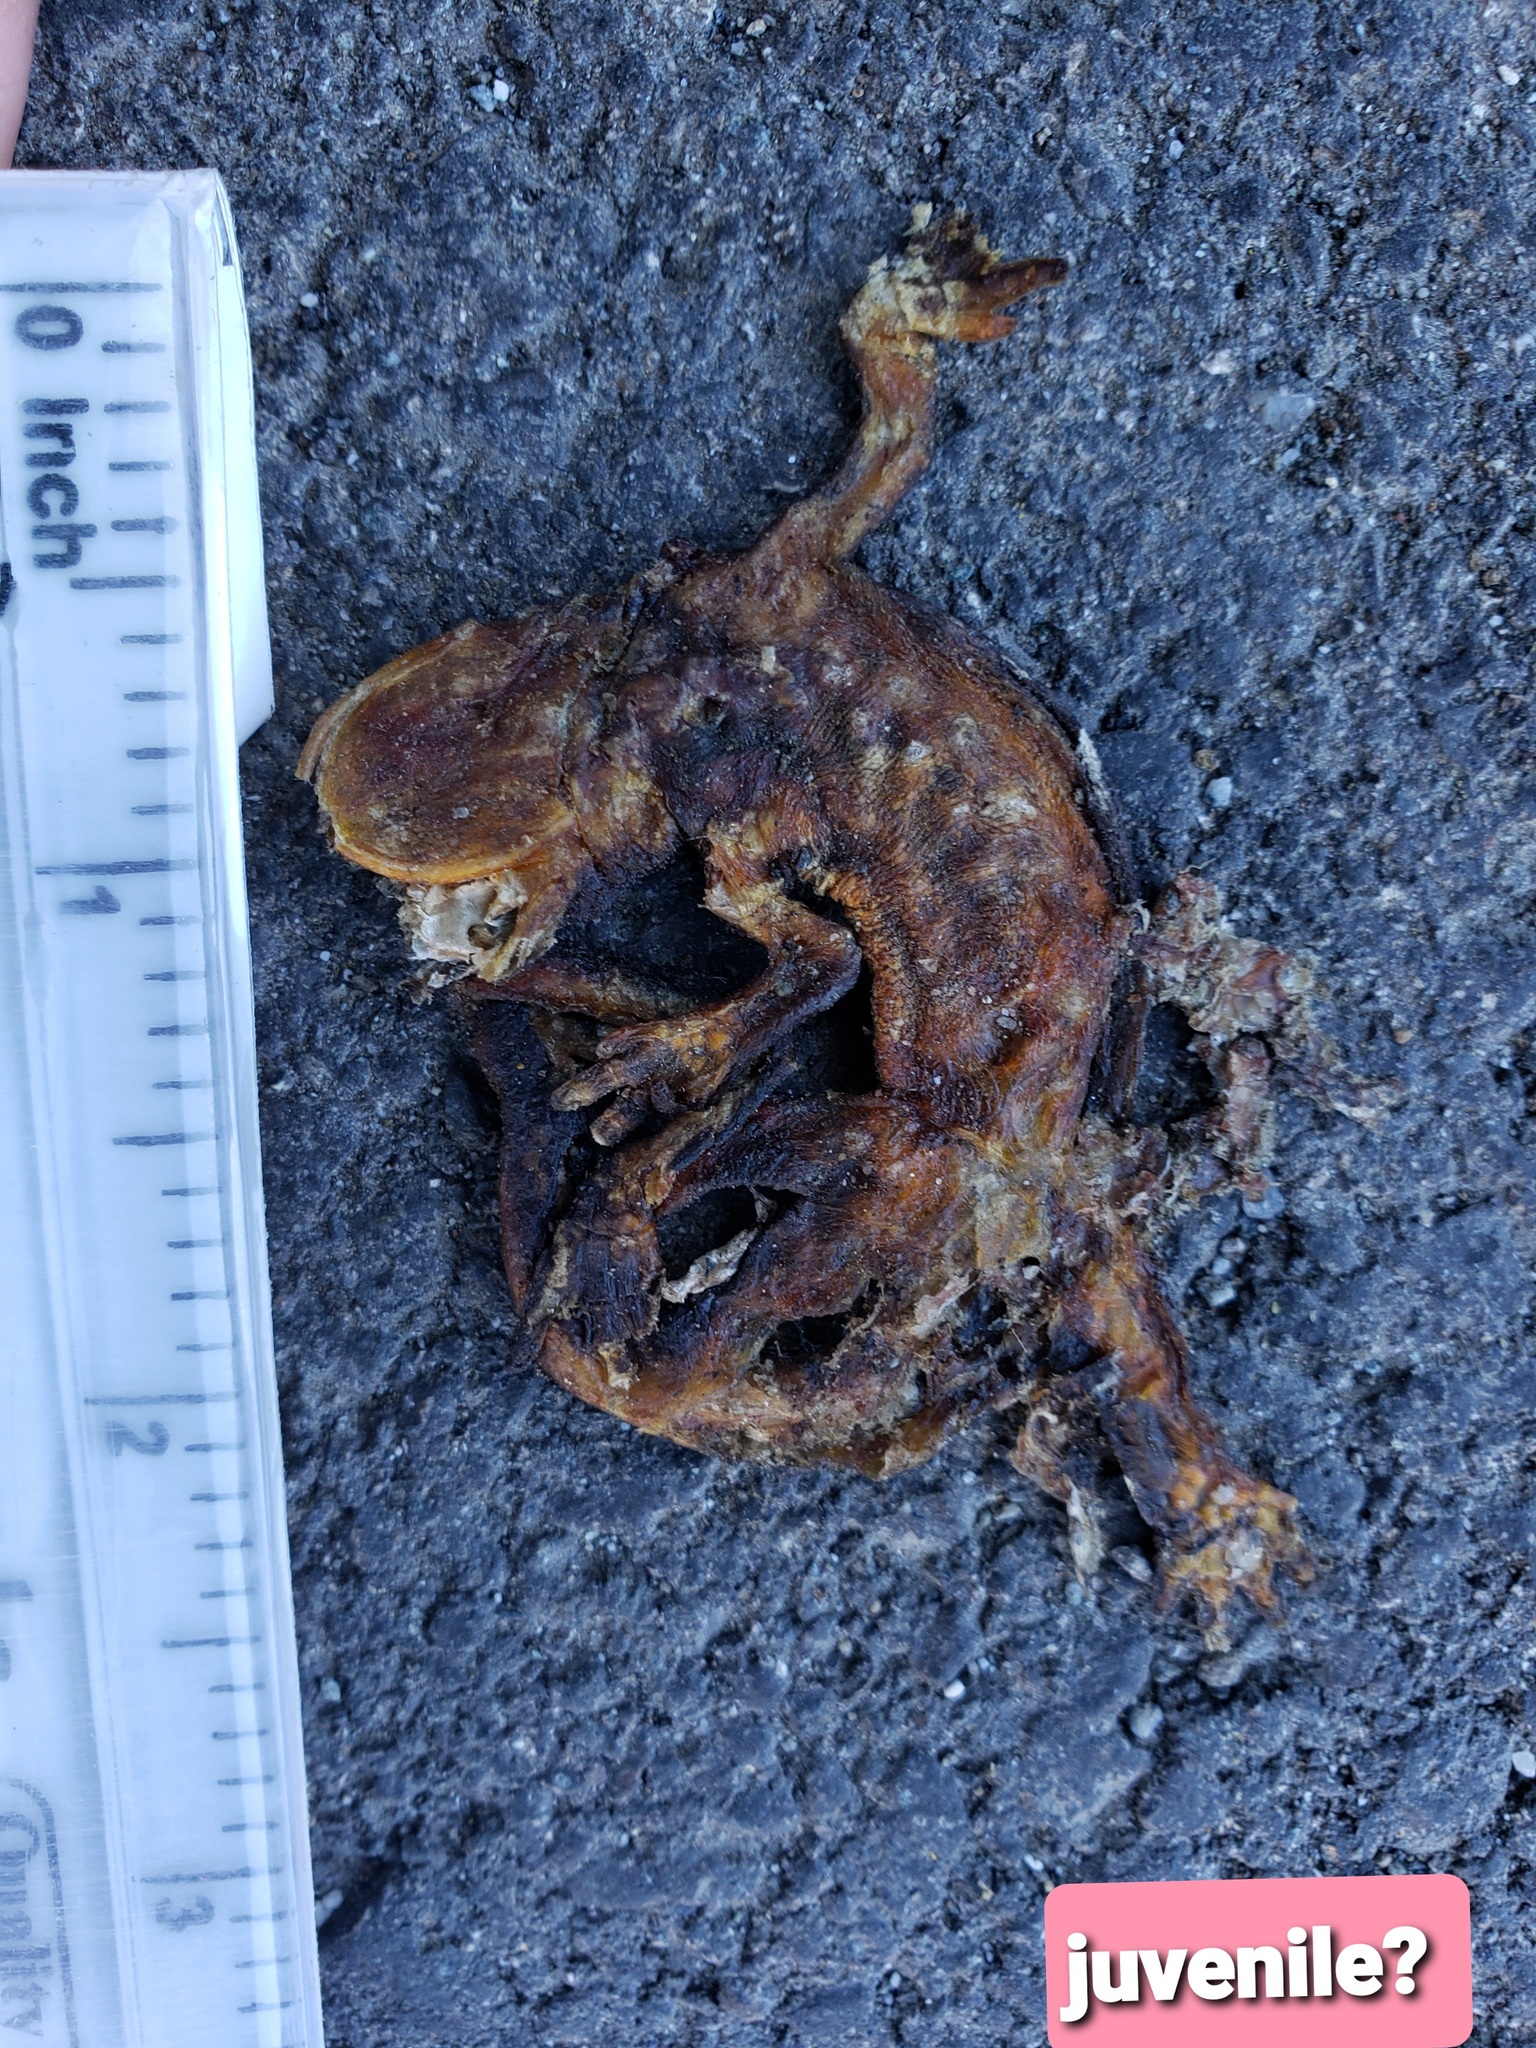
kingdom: Animalia
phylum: Chordata
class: Amphibia
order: Caudata
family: Salamandridae
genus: Taricha
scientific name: Taricha
